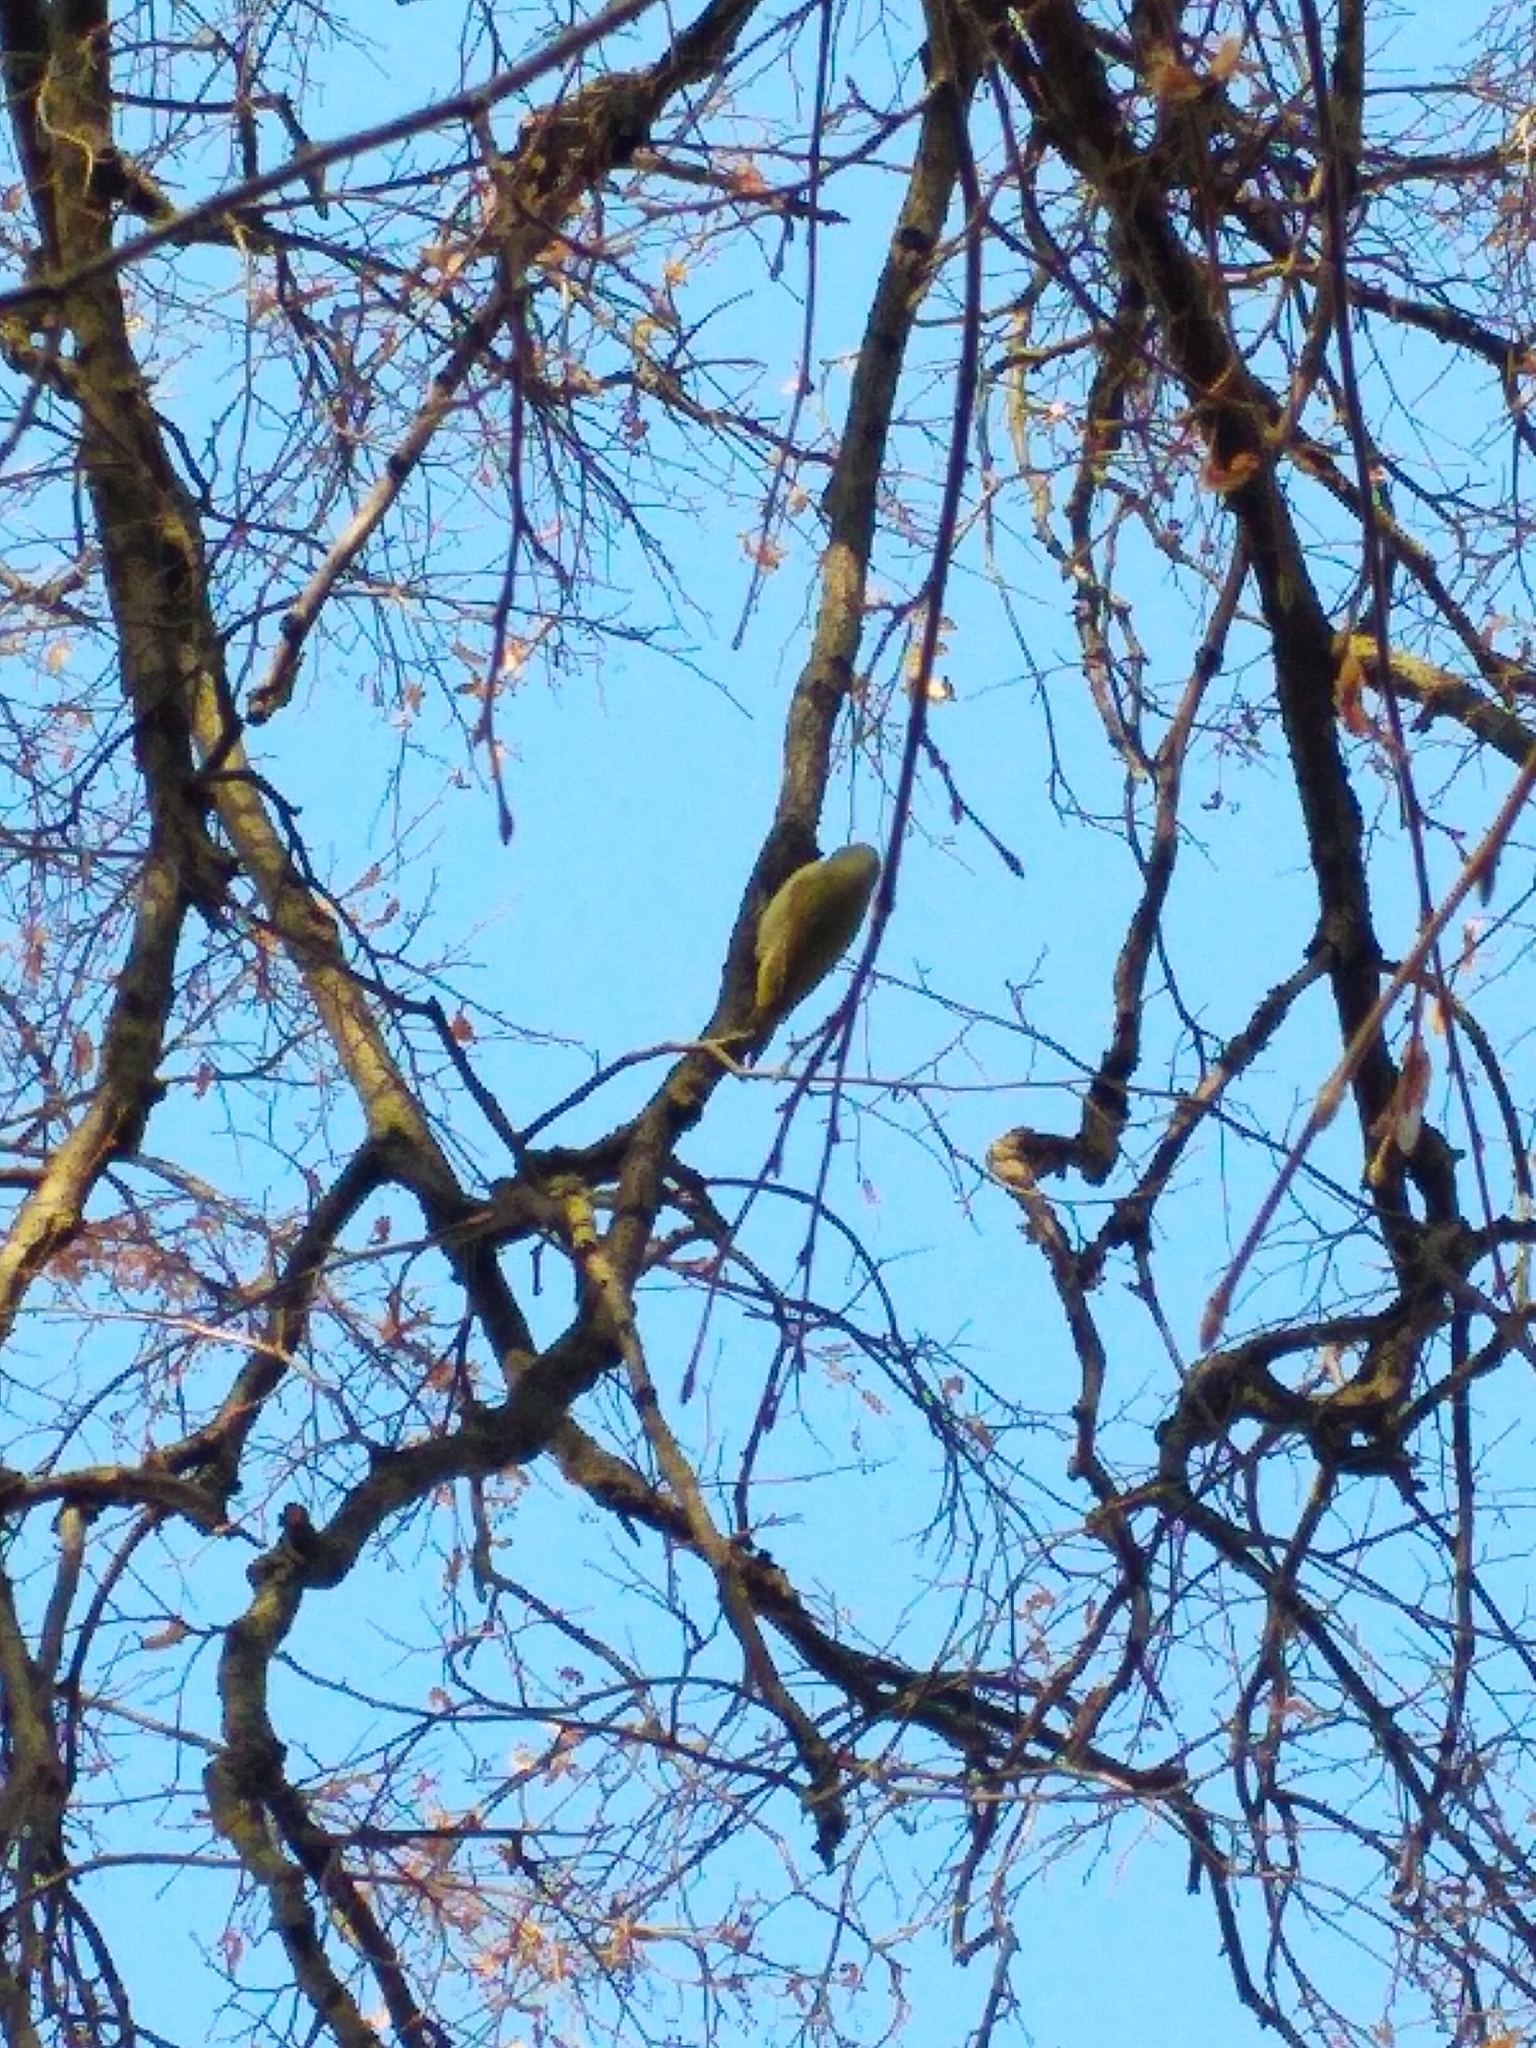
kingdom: Animalia
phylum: Chordata
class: Aves
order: Piciformes
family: Picidae
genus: Picus
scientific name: Picus canus
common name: Grey-headed woodpecker
